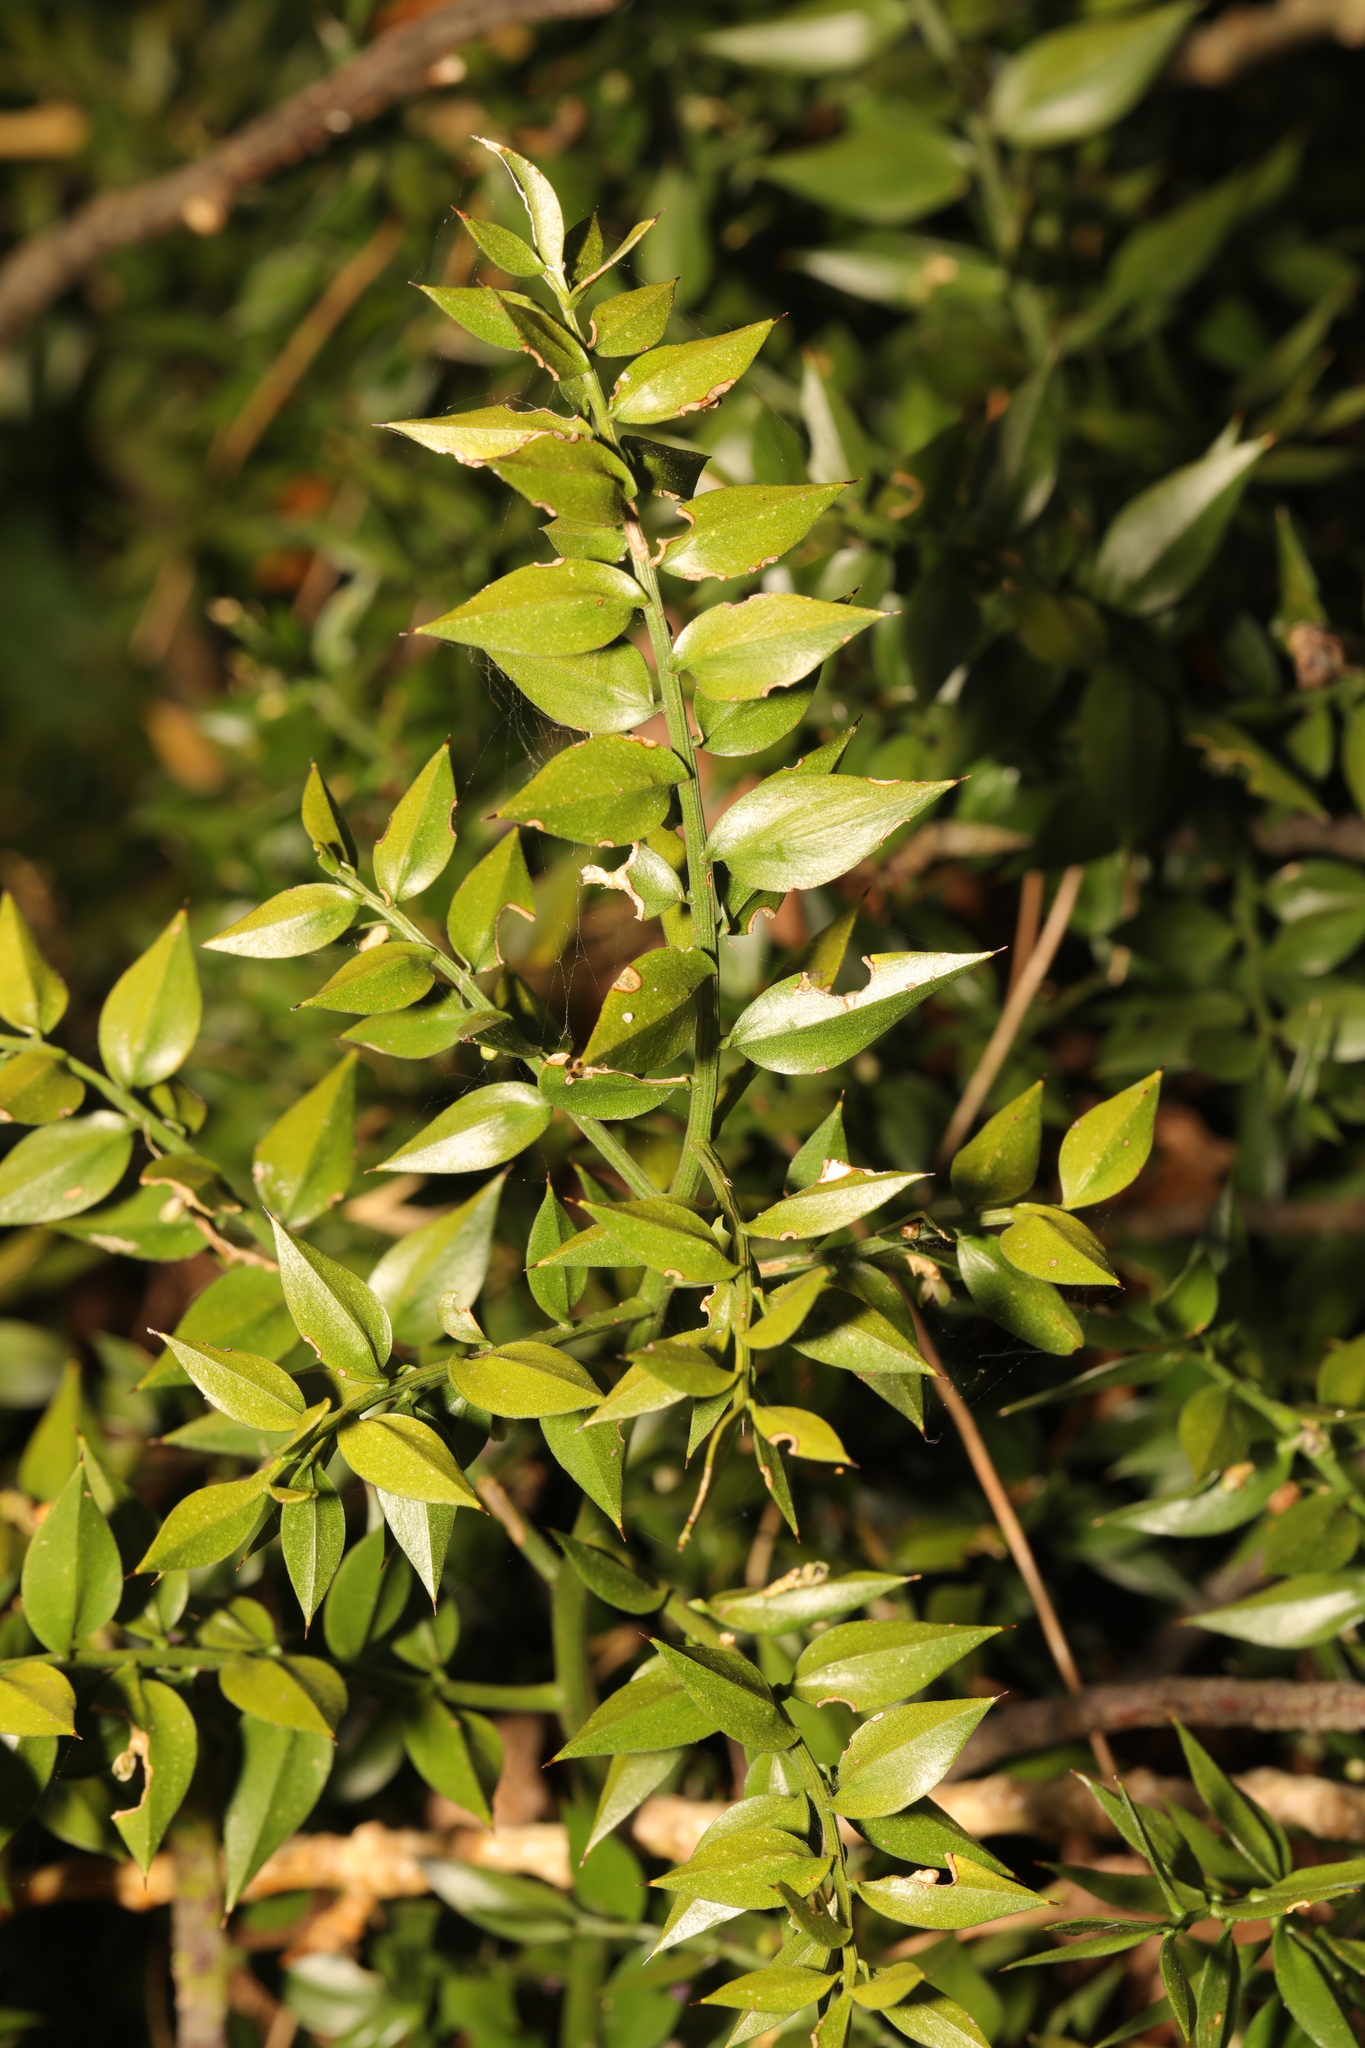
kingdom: Plantae
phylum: Tracheophyta
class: Liliopsida
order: Asparagales
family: Asparagaceae
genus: Ruscus
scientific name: Ruscus aculeatus
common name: Butcher's-broom
